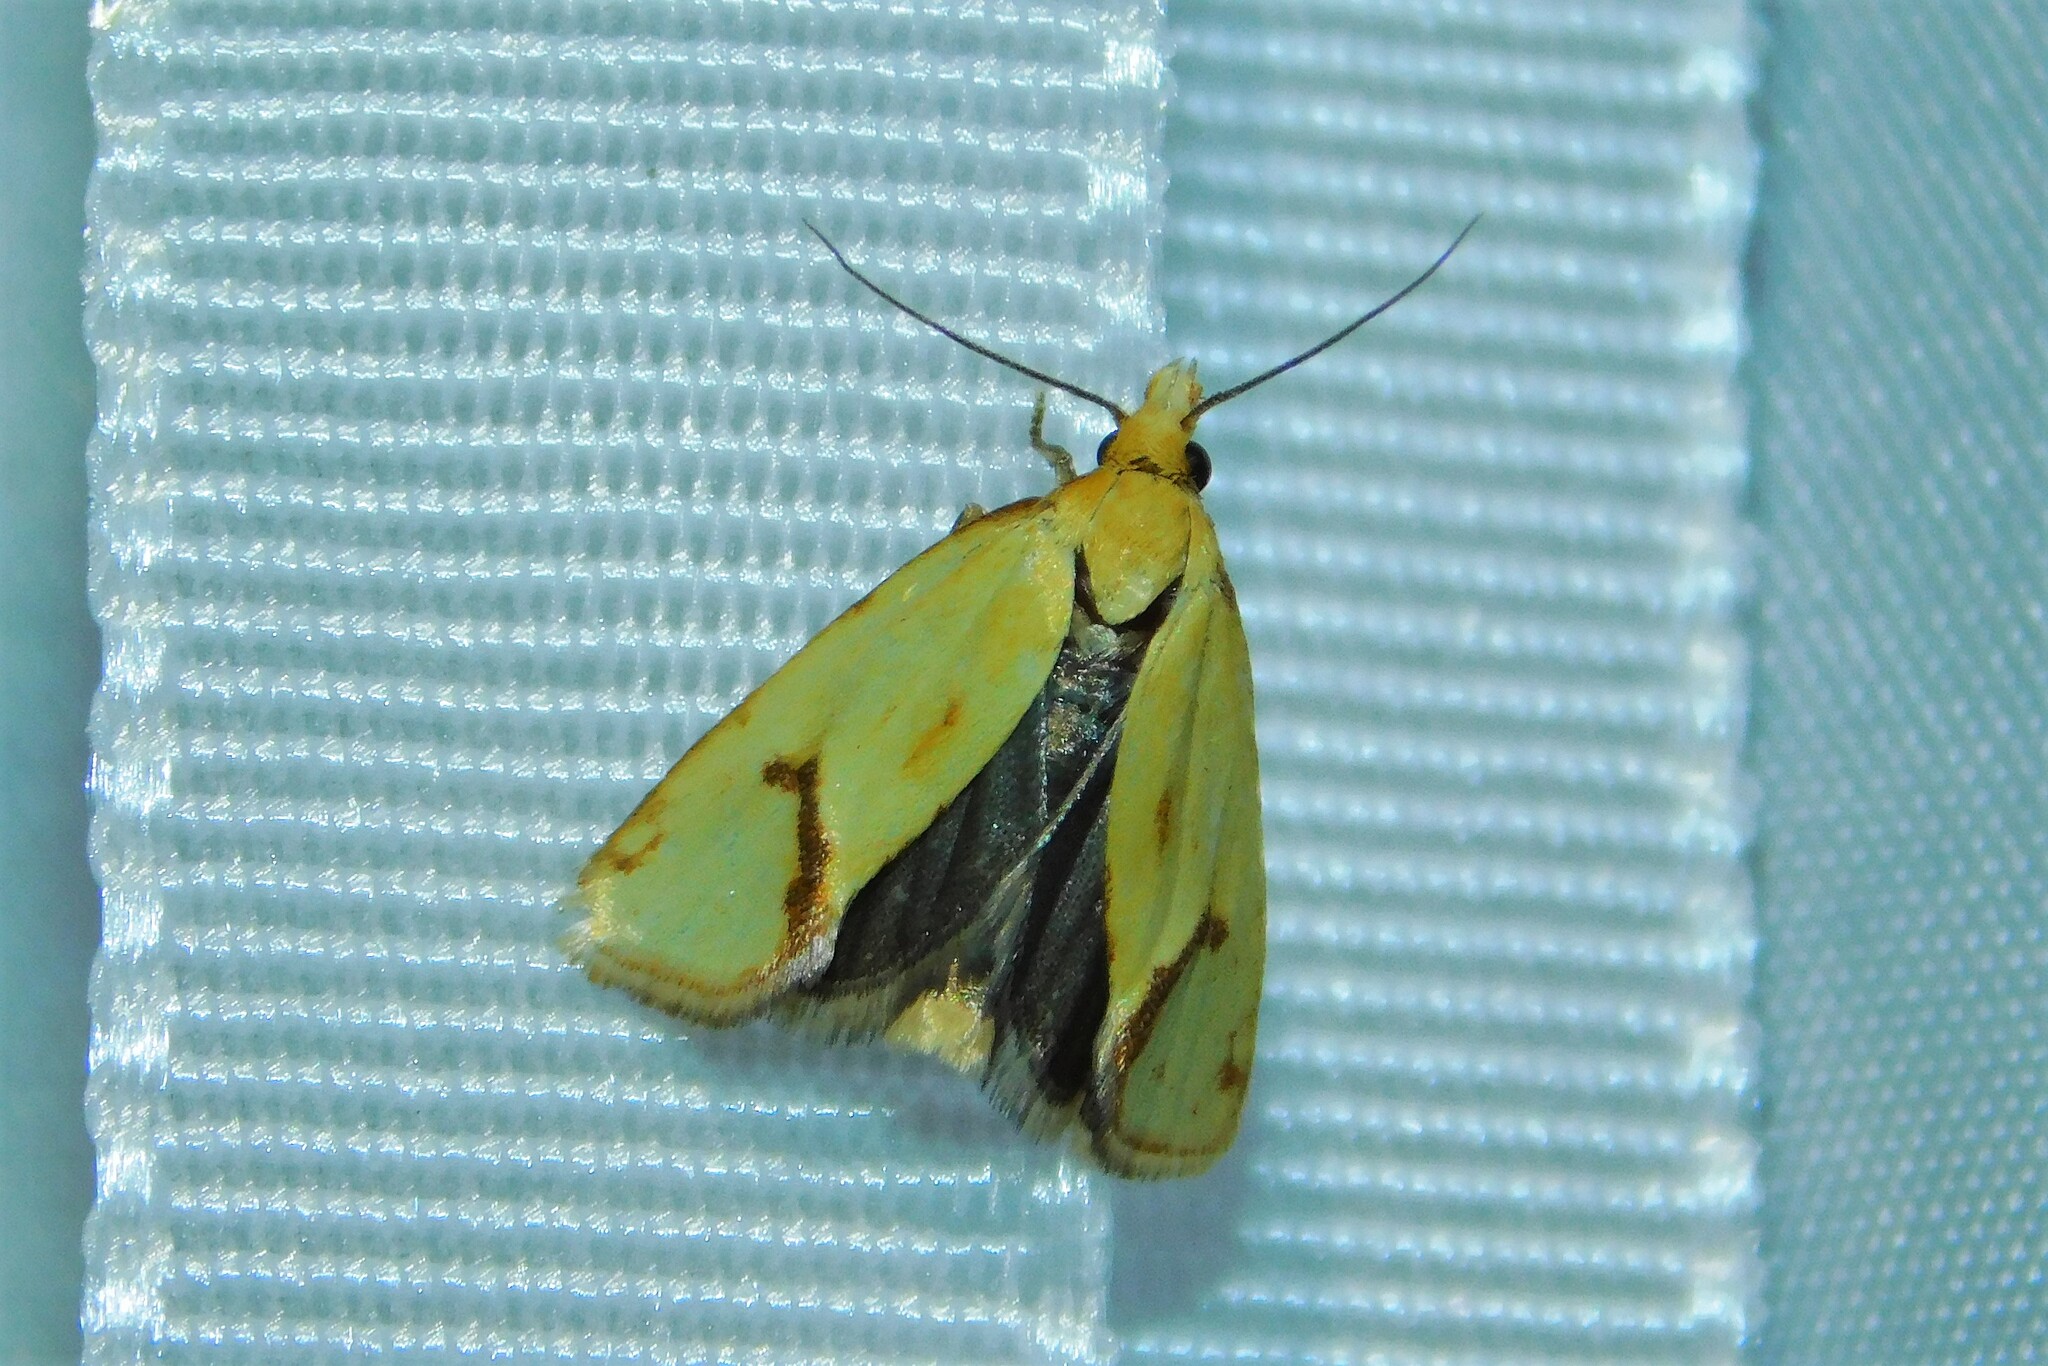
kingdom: Animalia
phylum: Arthropoda
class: Insecta
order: Lepidoptera
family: Tortricidae
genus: Agapeta
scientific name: Agapeta hamana
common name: Common yellow conch
